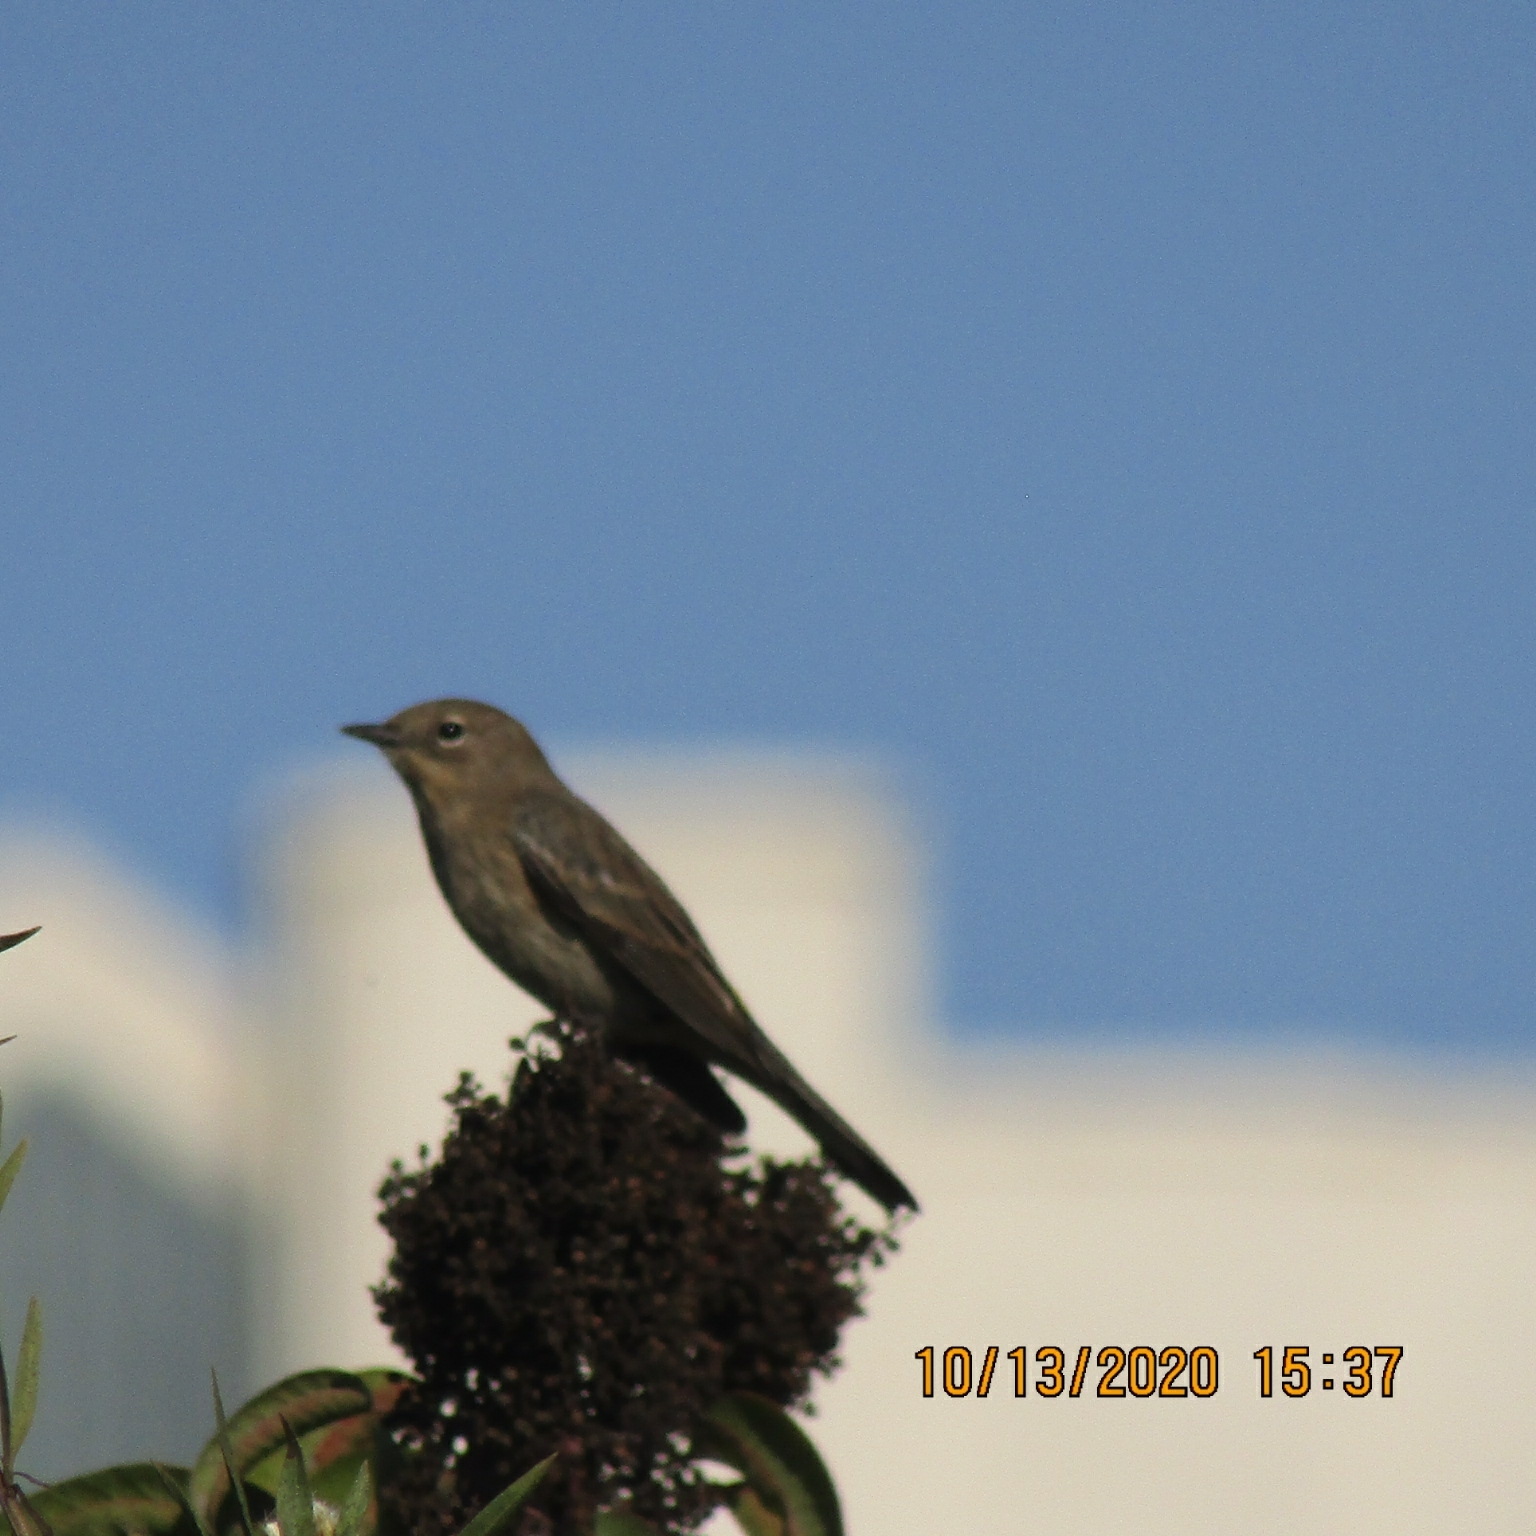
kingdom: Animalia
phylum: Chordata
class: Aves
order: Passeriformes
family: Parulidae
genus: Setophaga
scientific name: Setophaga coronata
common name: Myrtle warbler
